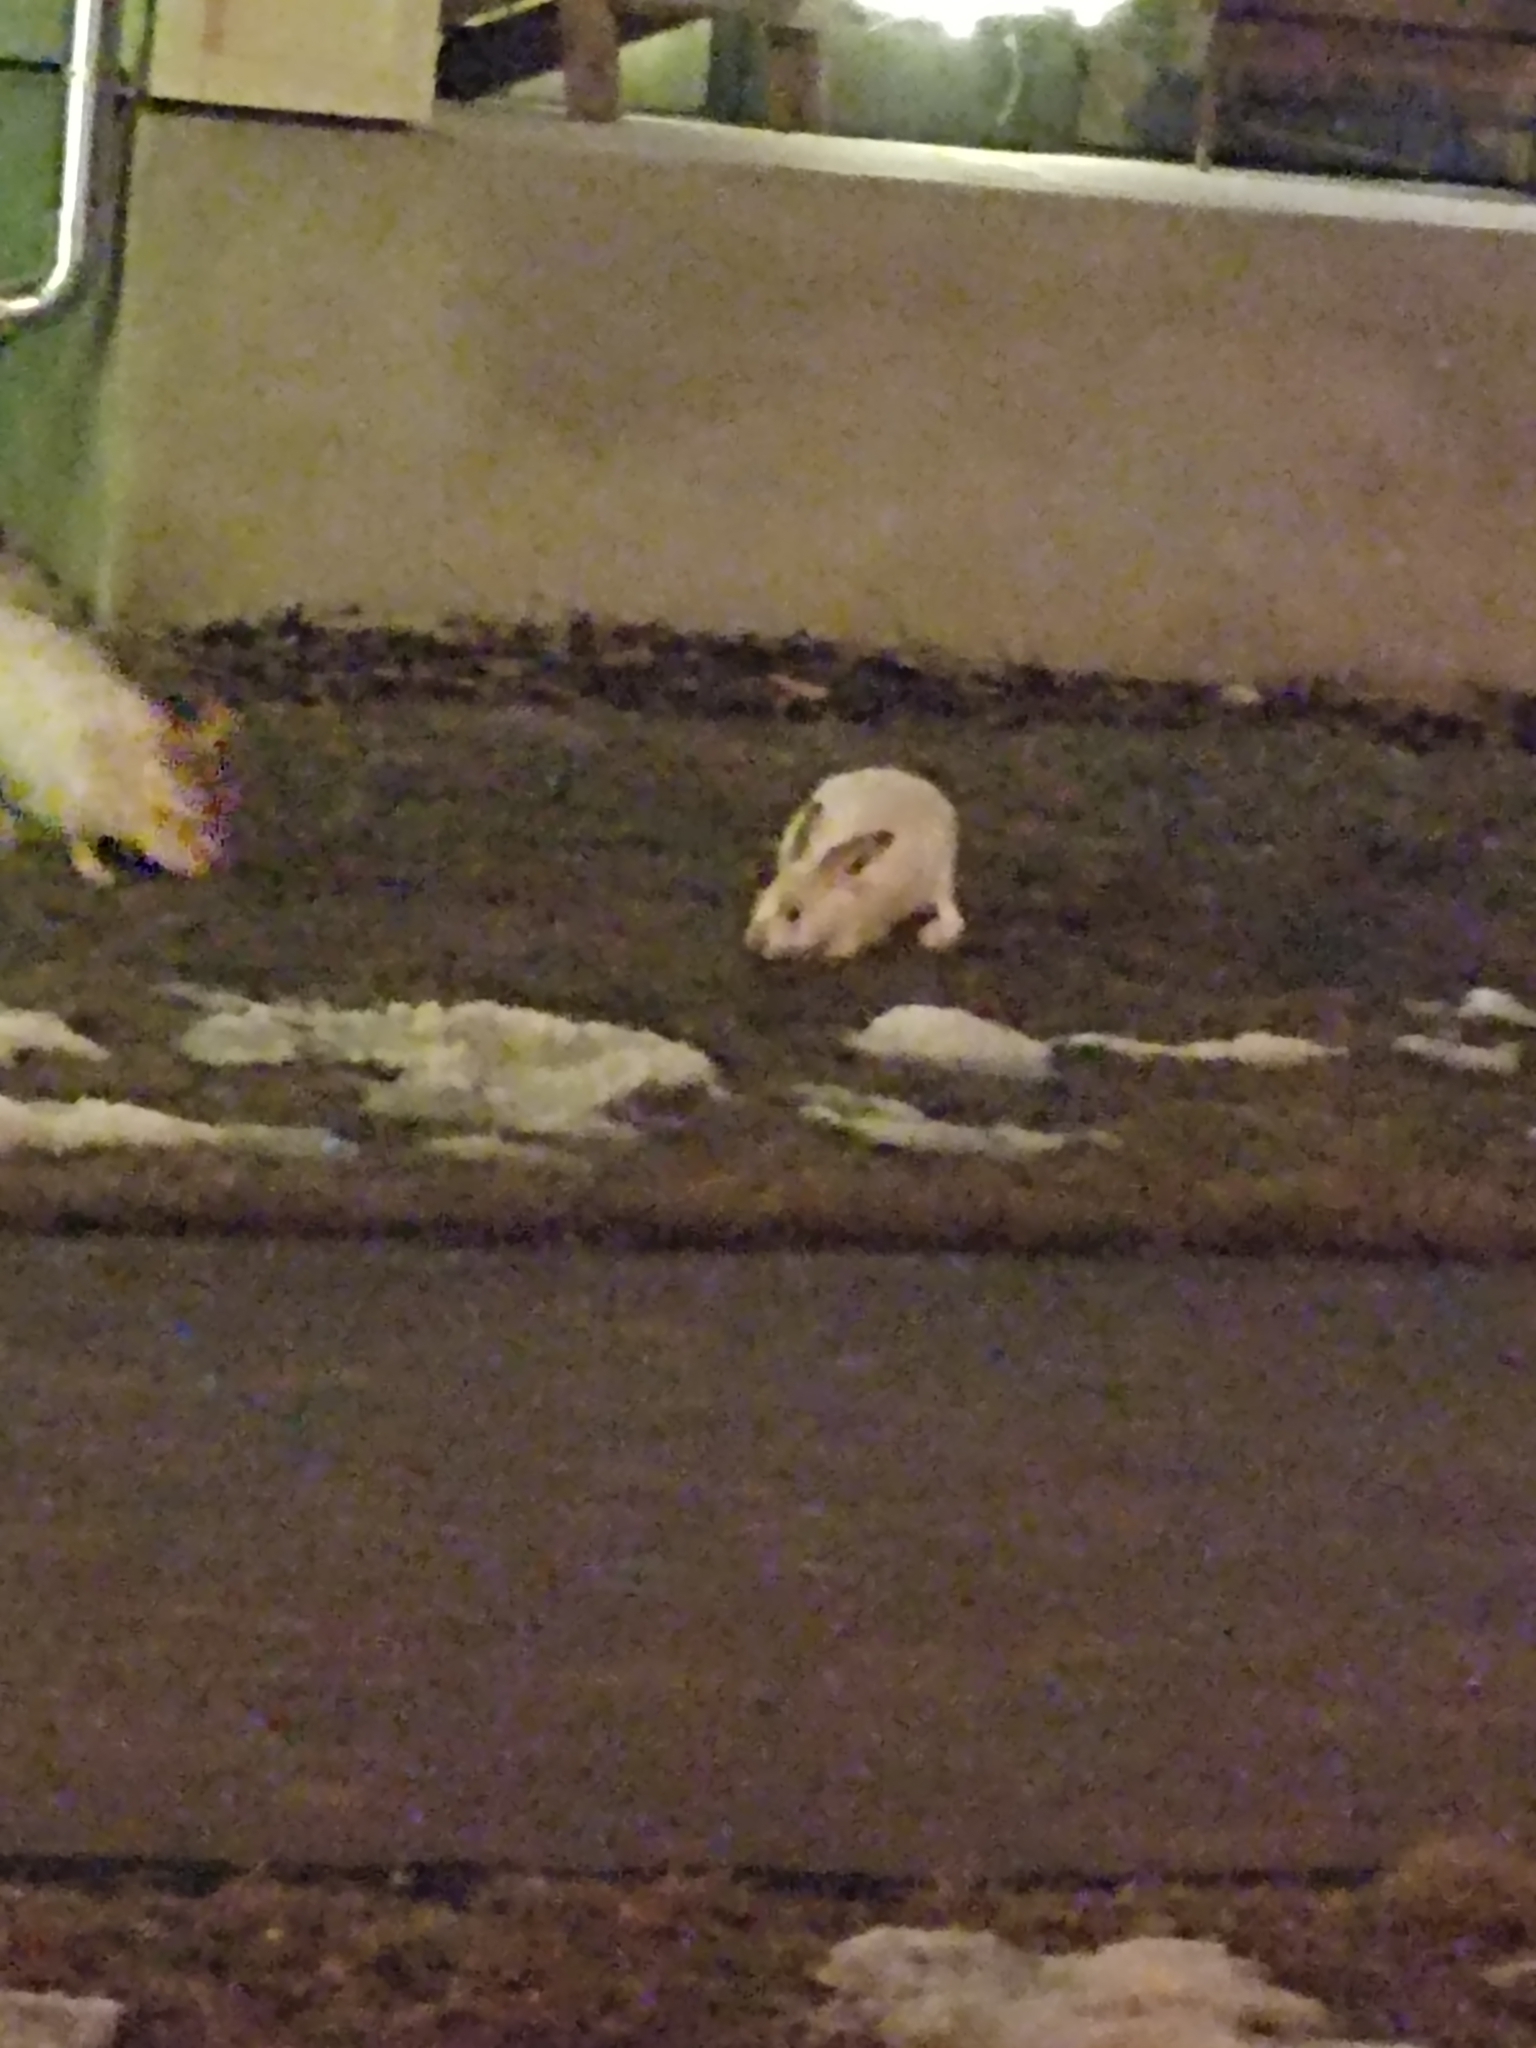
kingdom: Animalia
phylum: Chordata
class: Mammalia
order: Lagomorpha
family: Leporidae
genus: Lepus
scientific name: Lepus townsendii
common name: White-tailed jackrabbit
